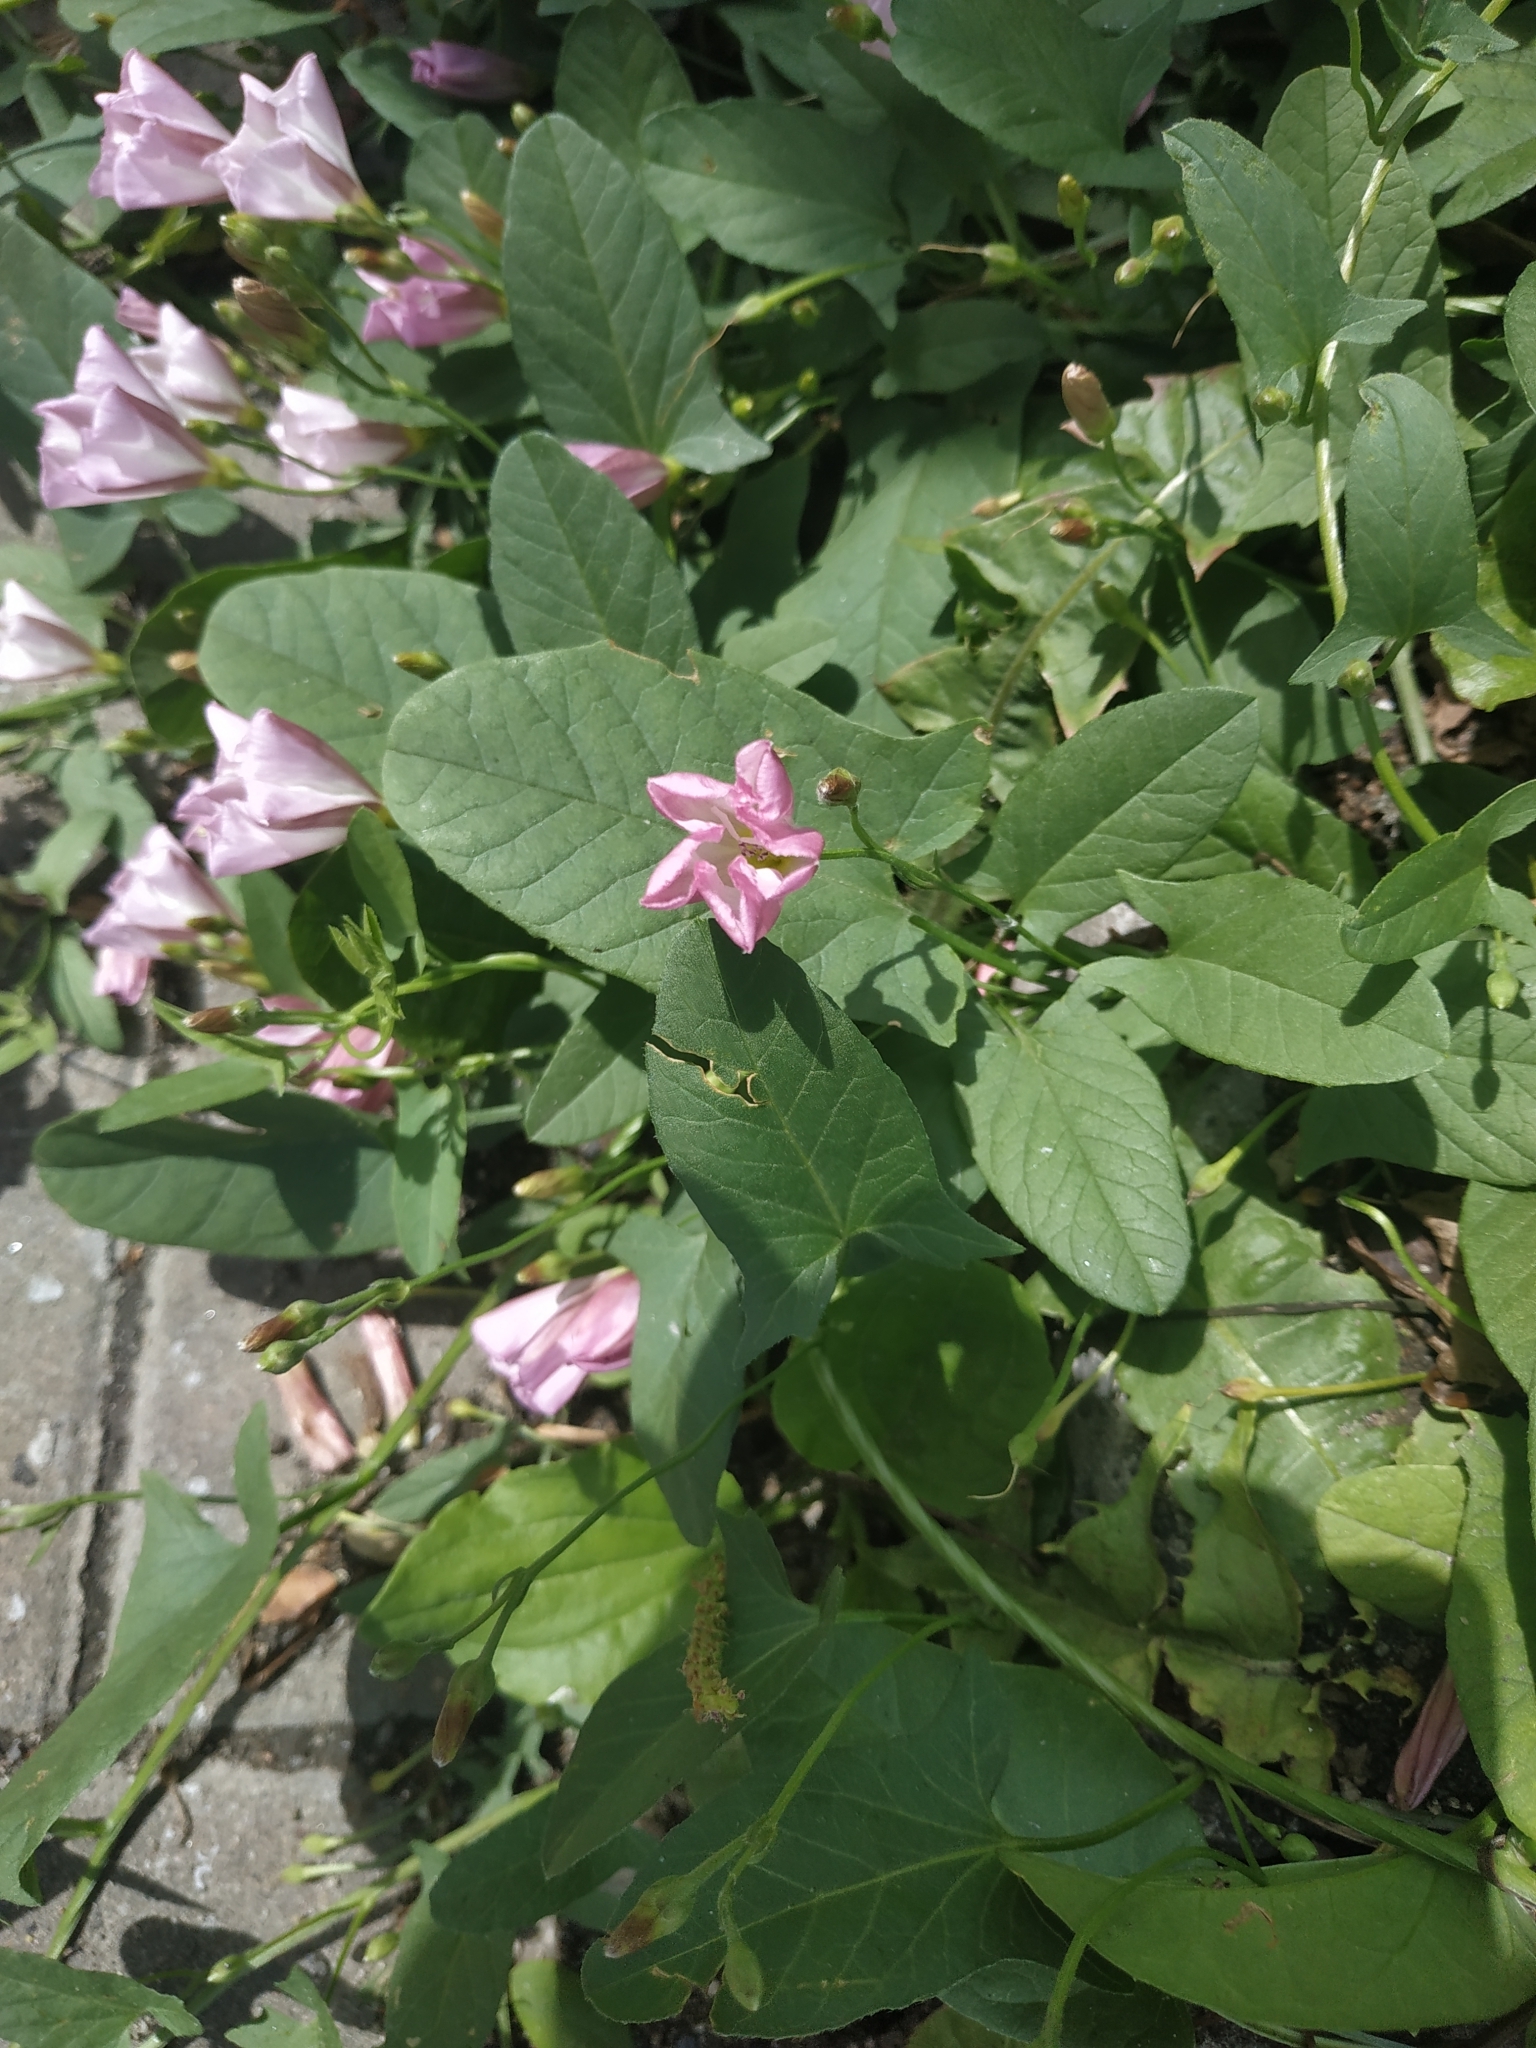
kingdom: Plantae
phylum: Tracheophyta
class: Magnoliopsida
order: Solanales
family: Convolvulaceae
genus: Convolvulus
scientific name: Convolvulus arvensis
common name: Field bindweed
